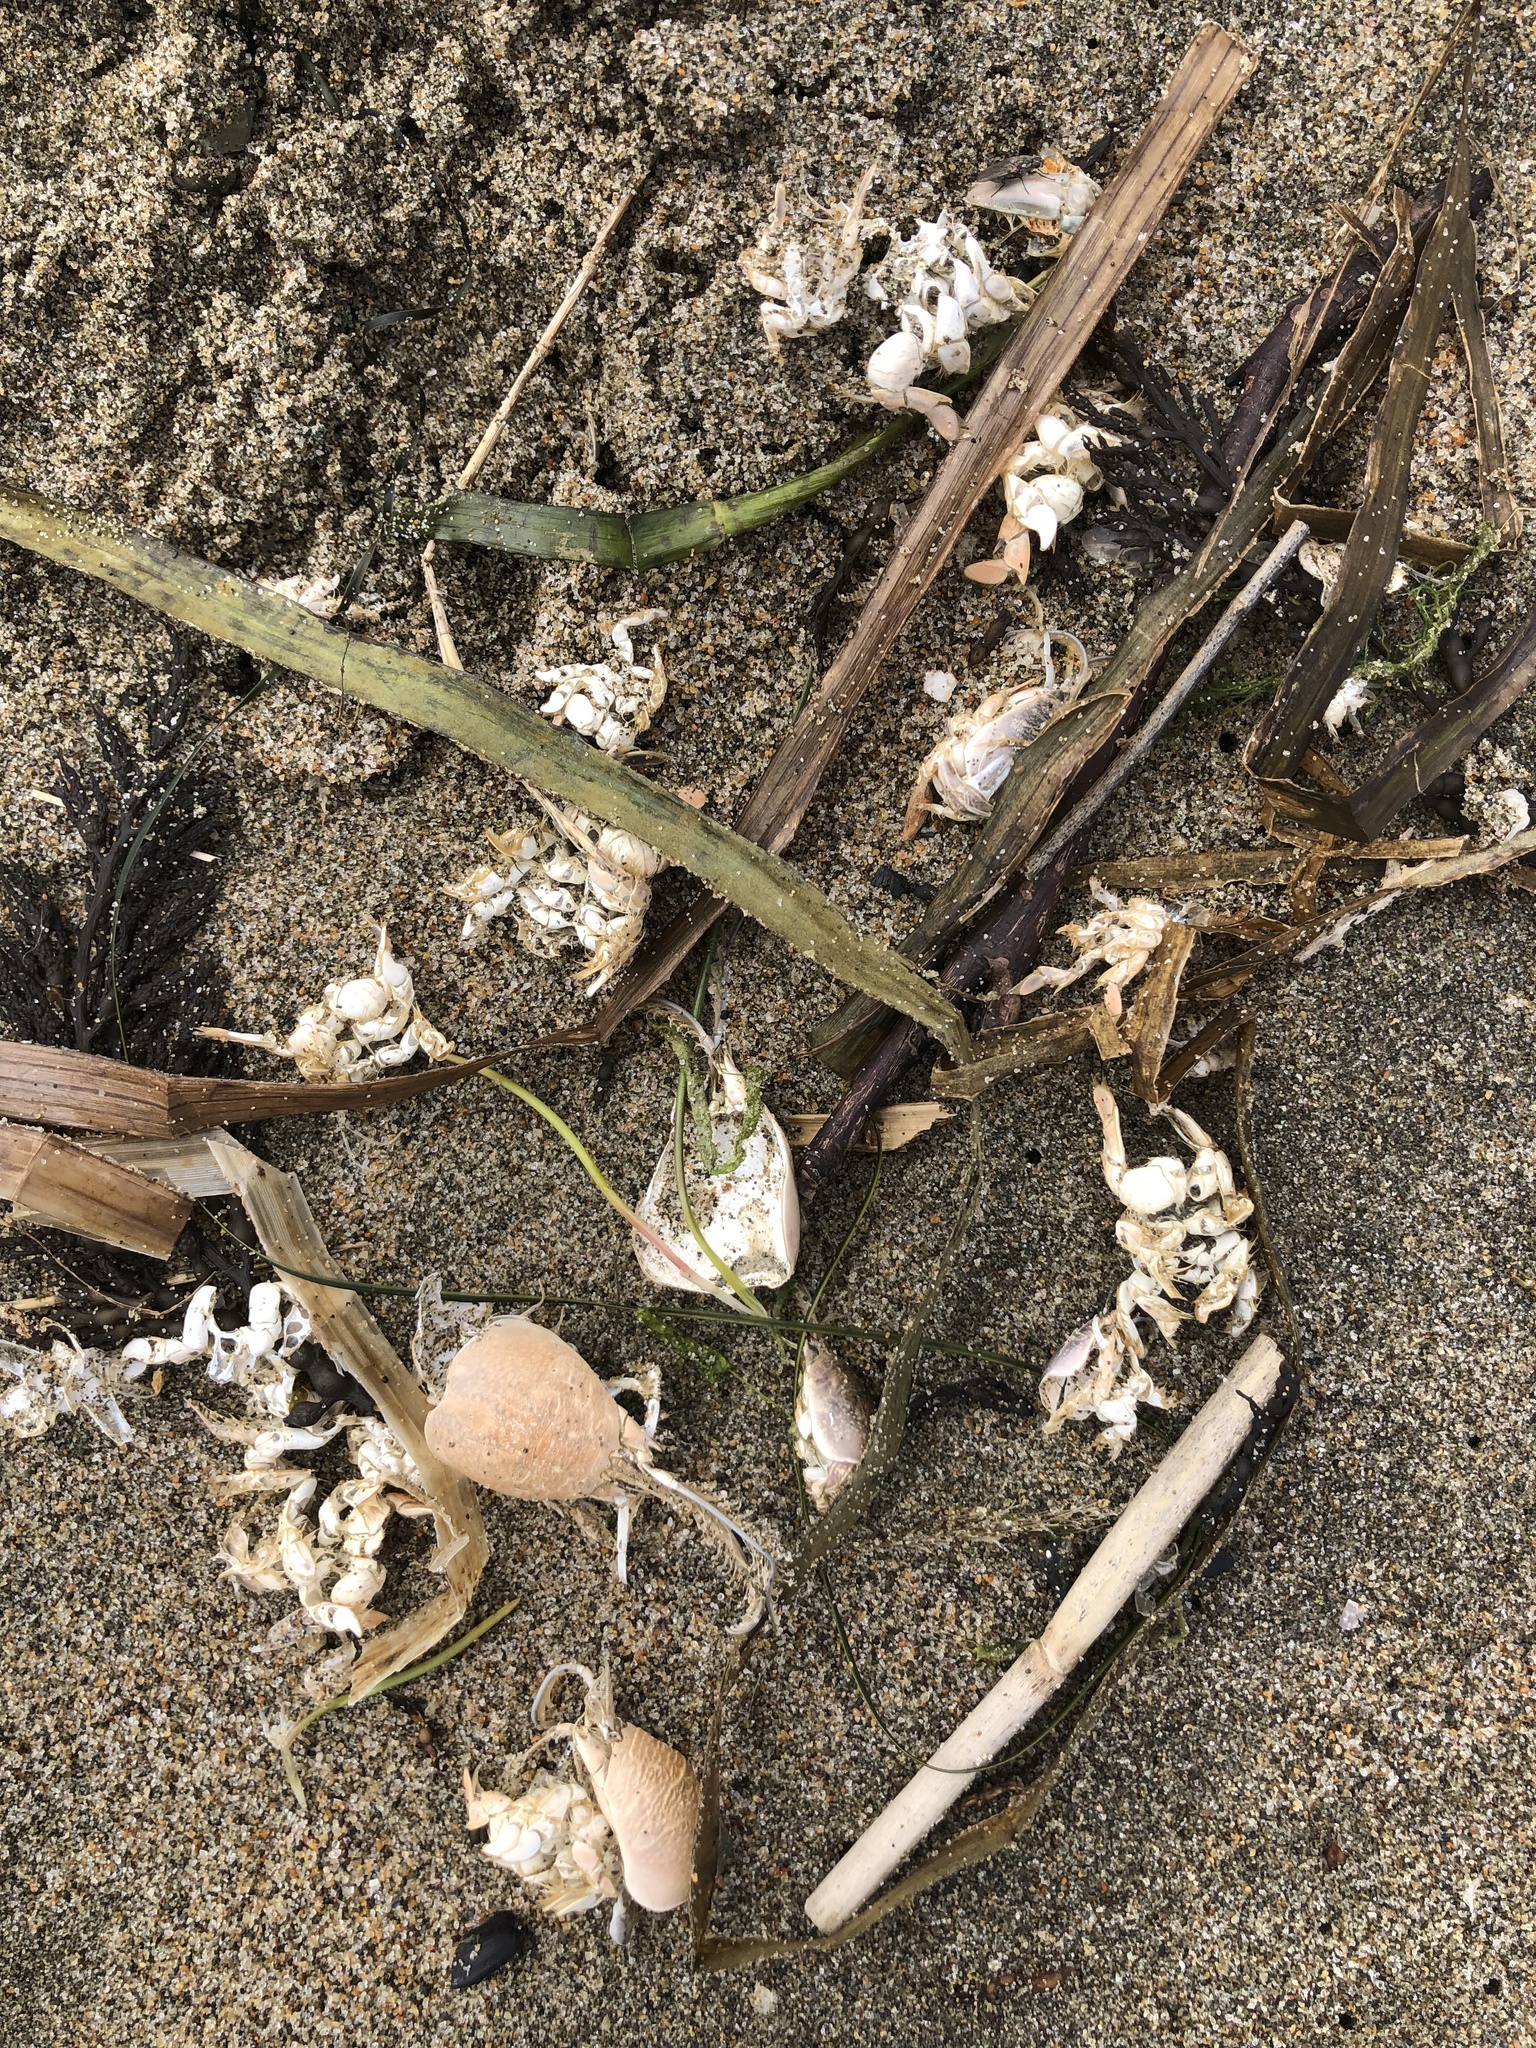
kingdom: Animalia
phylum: Arthropoda
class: Malacostraca
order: Decapoda
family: Hippidae
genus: Emerita
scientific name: Emerita analoga
